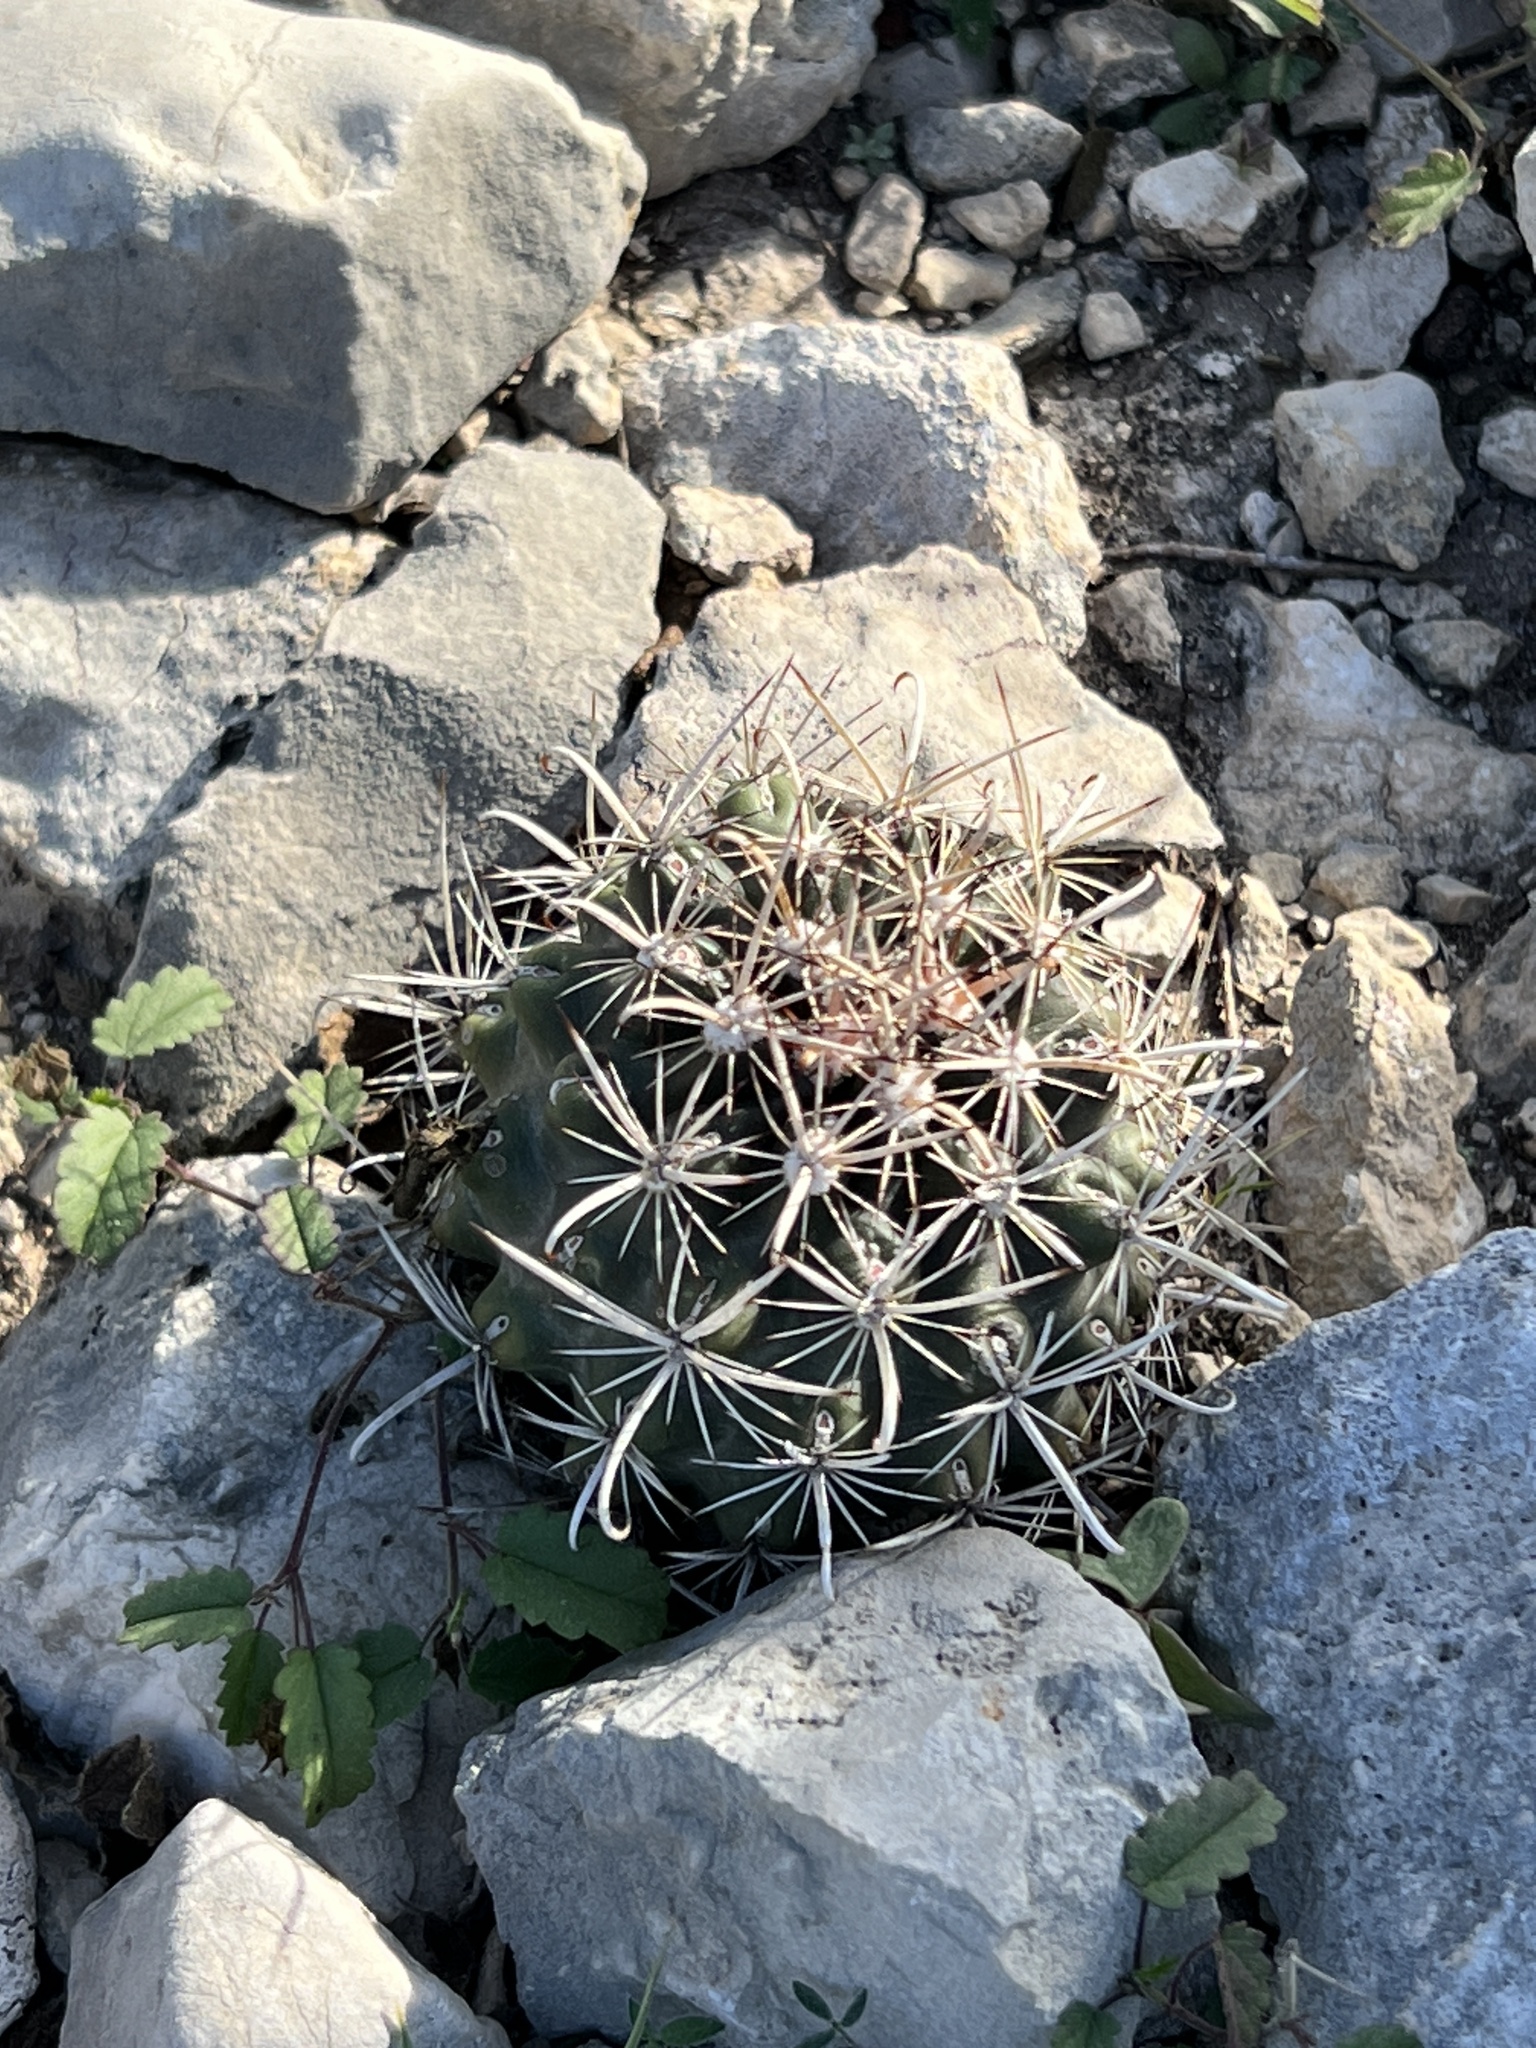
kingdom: Plantae
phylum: Tracheophyta
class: Magnoliopsida
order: Caryophyllales
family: Cactaceae
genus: Sclerocactus
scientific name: Sclerocactus brevihamatus
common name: Engelmann's fishhook cactus
